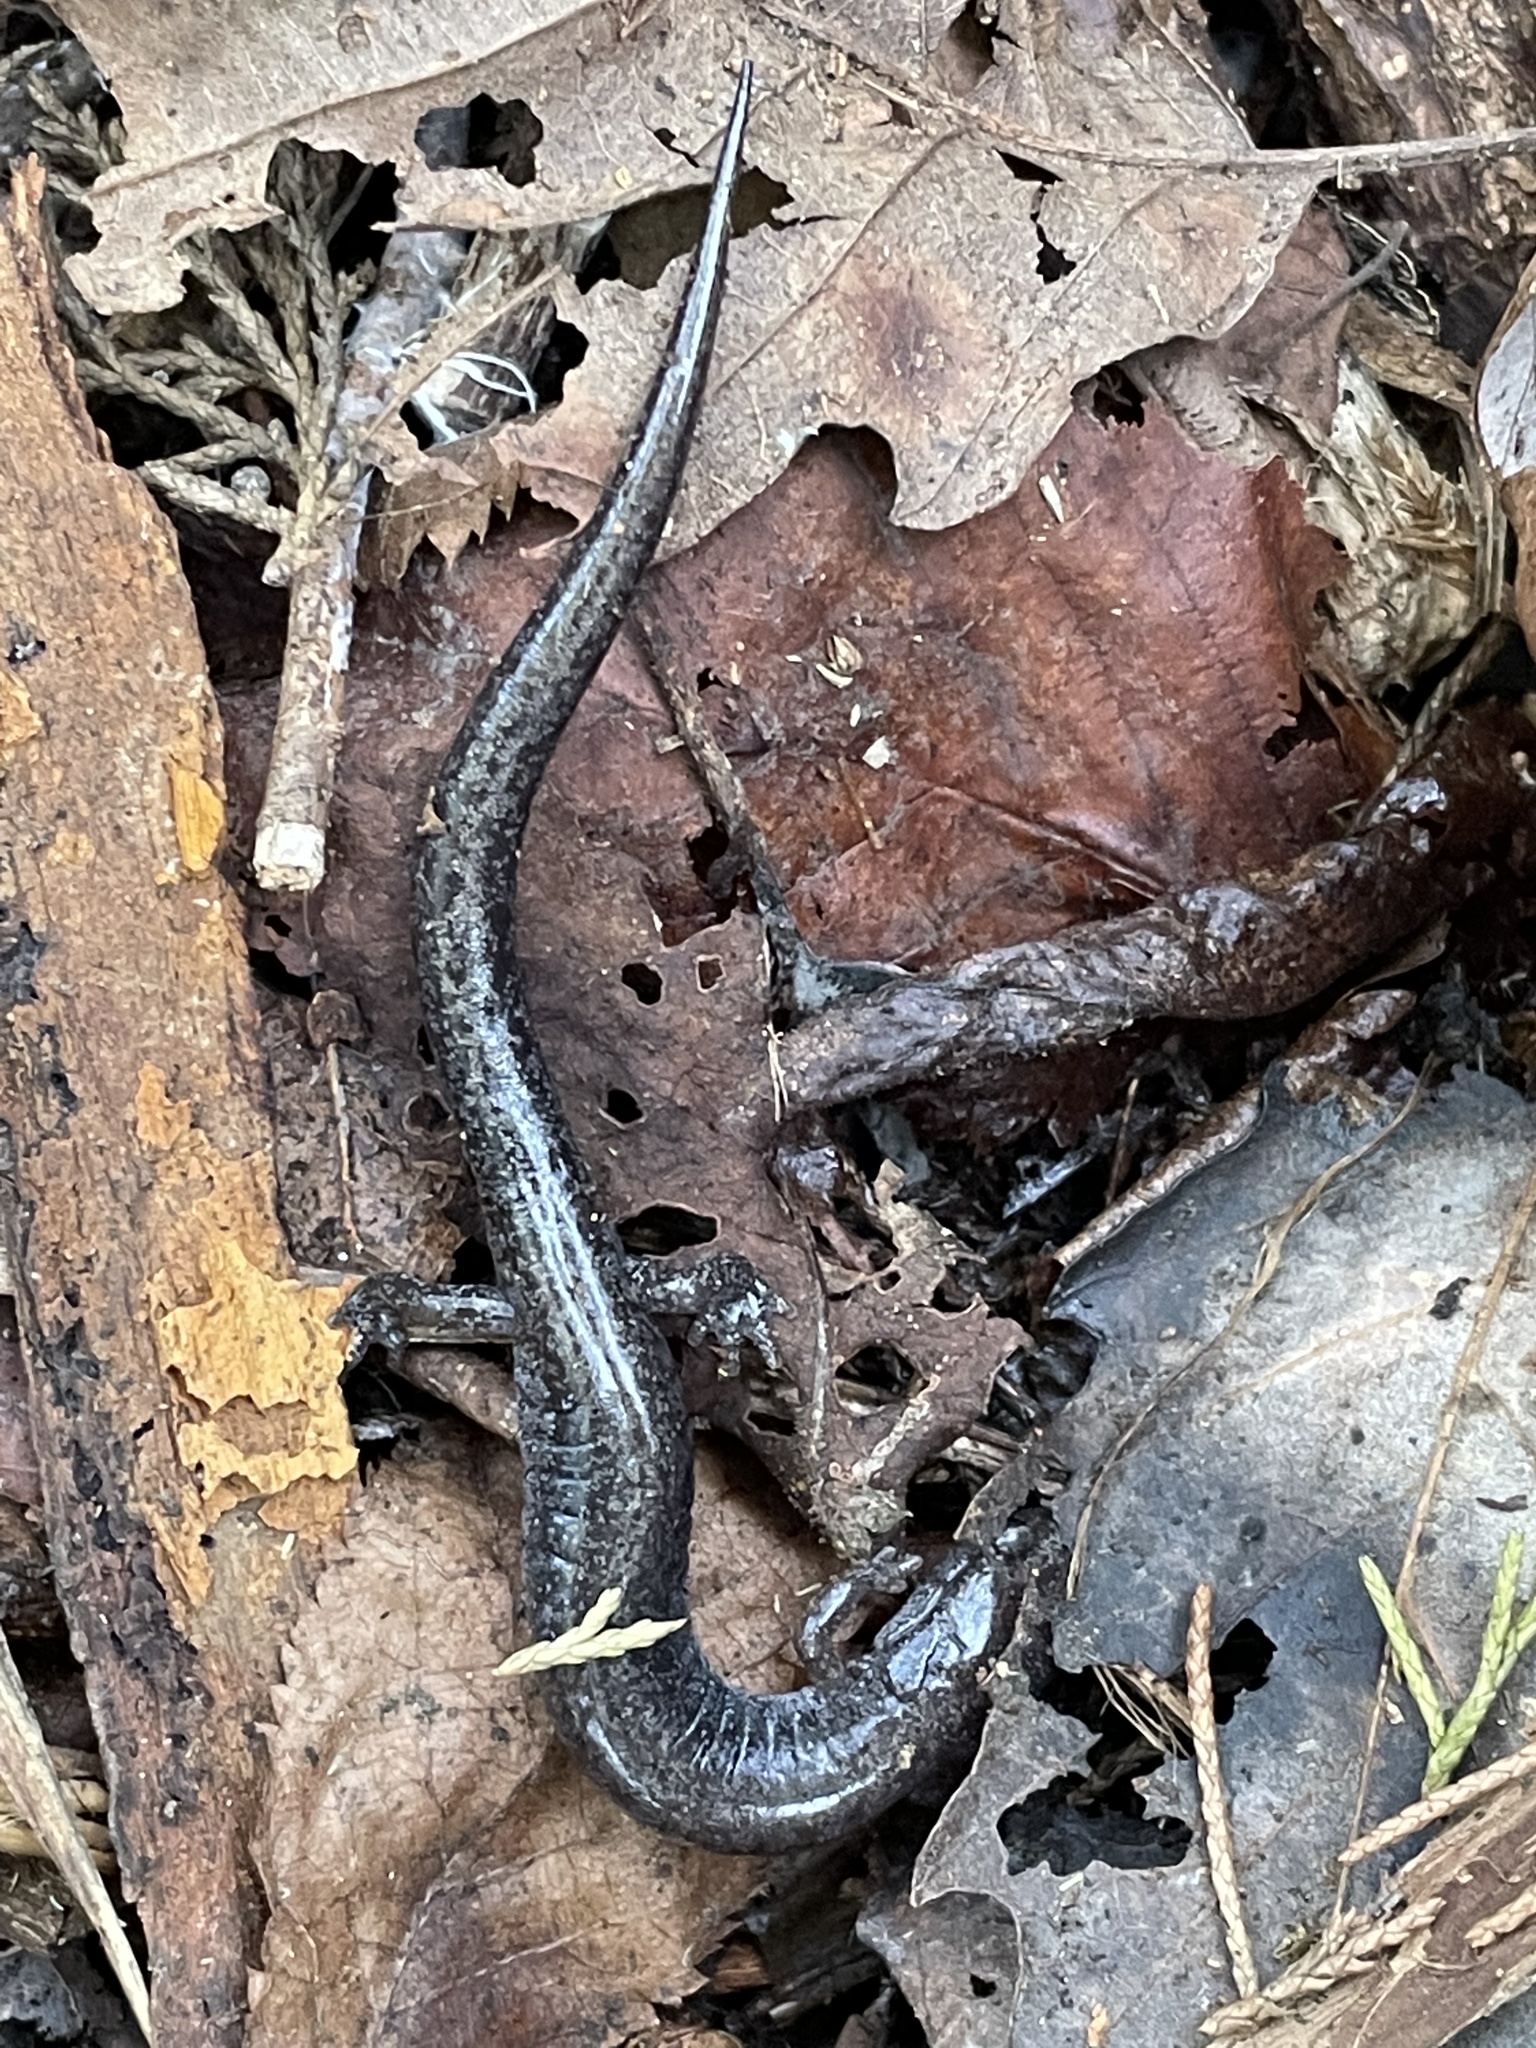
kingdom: Animalia
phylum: Chordata
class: Amphibia
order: Caudata
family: Plethodontidae
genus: Plethodon
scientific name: Plethodon dorsalis
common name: Northern zigzag salamander
